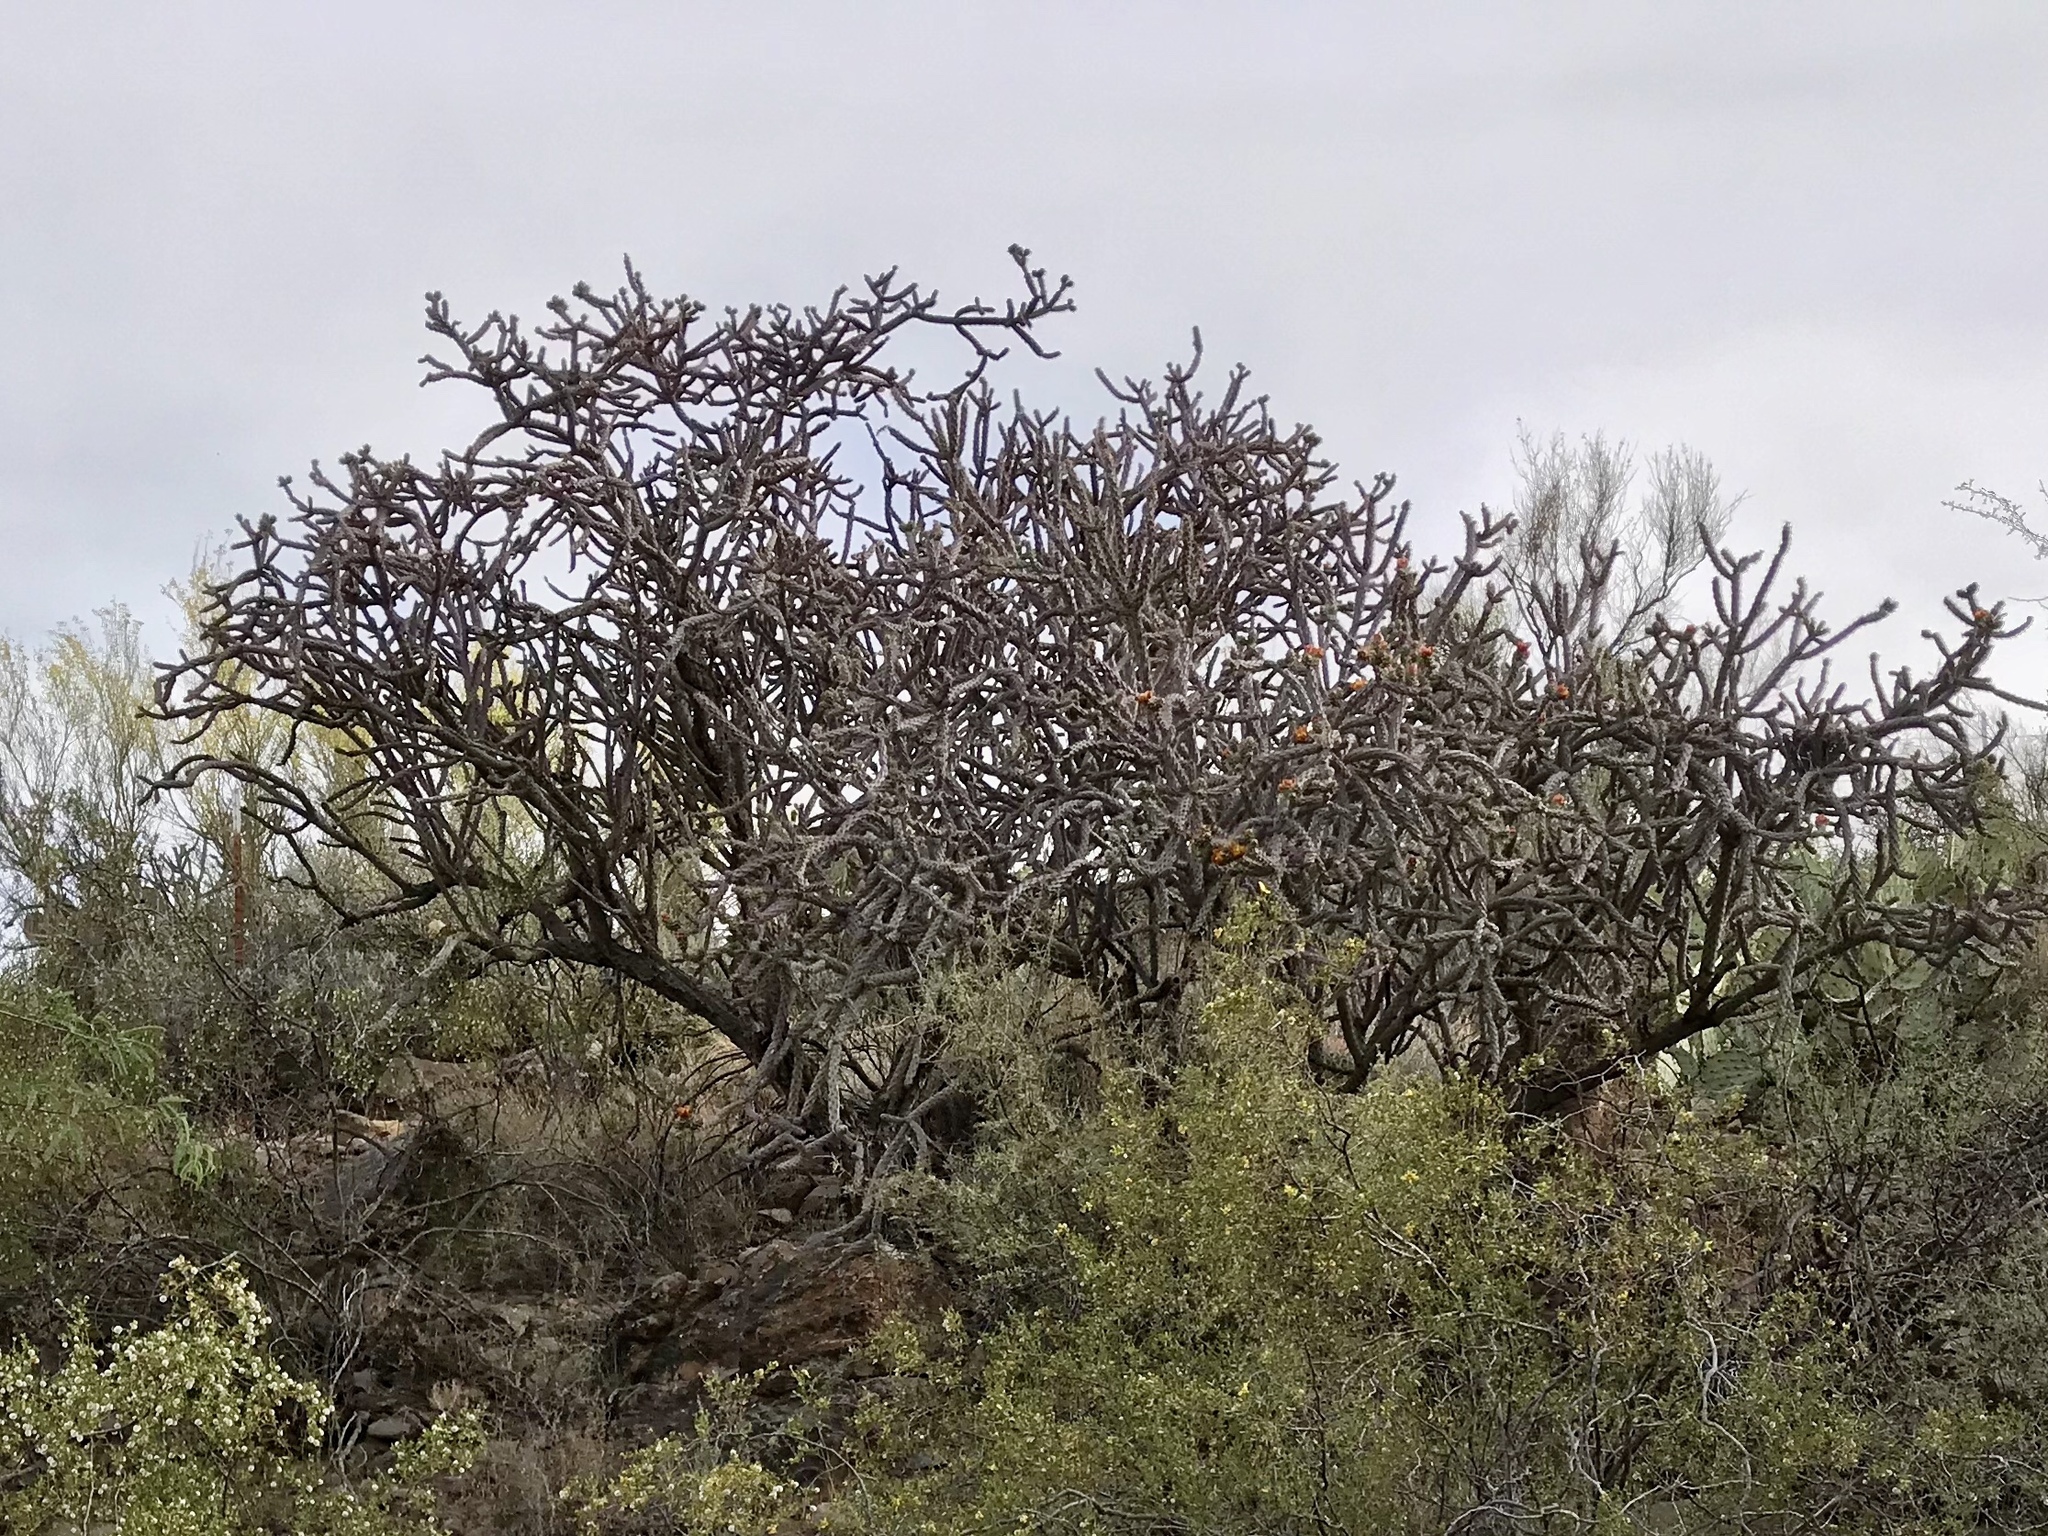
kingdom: Plantae
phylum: Tracheophyta
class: Magnoliopsida
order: Caryophyllales
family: Cactaceae
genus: Cylindropuntia
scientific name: Cylindropuntia thurberi
